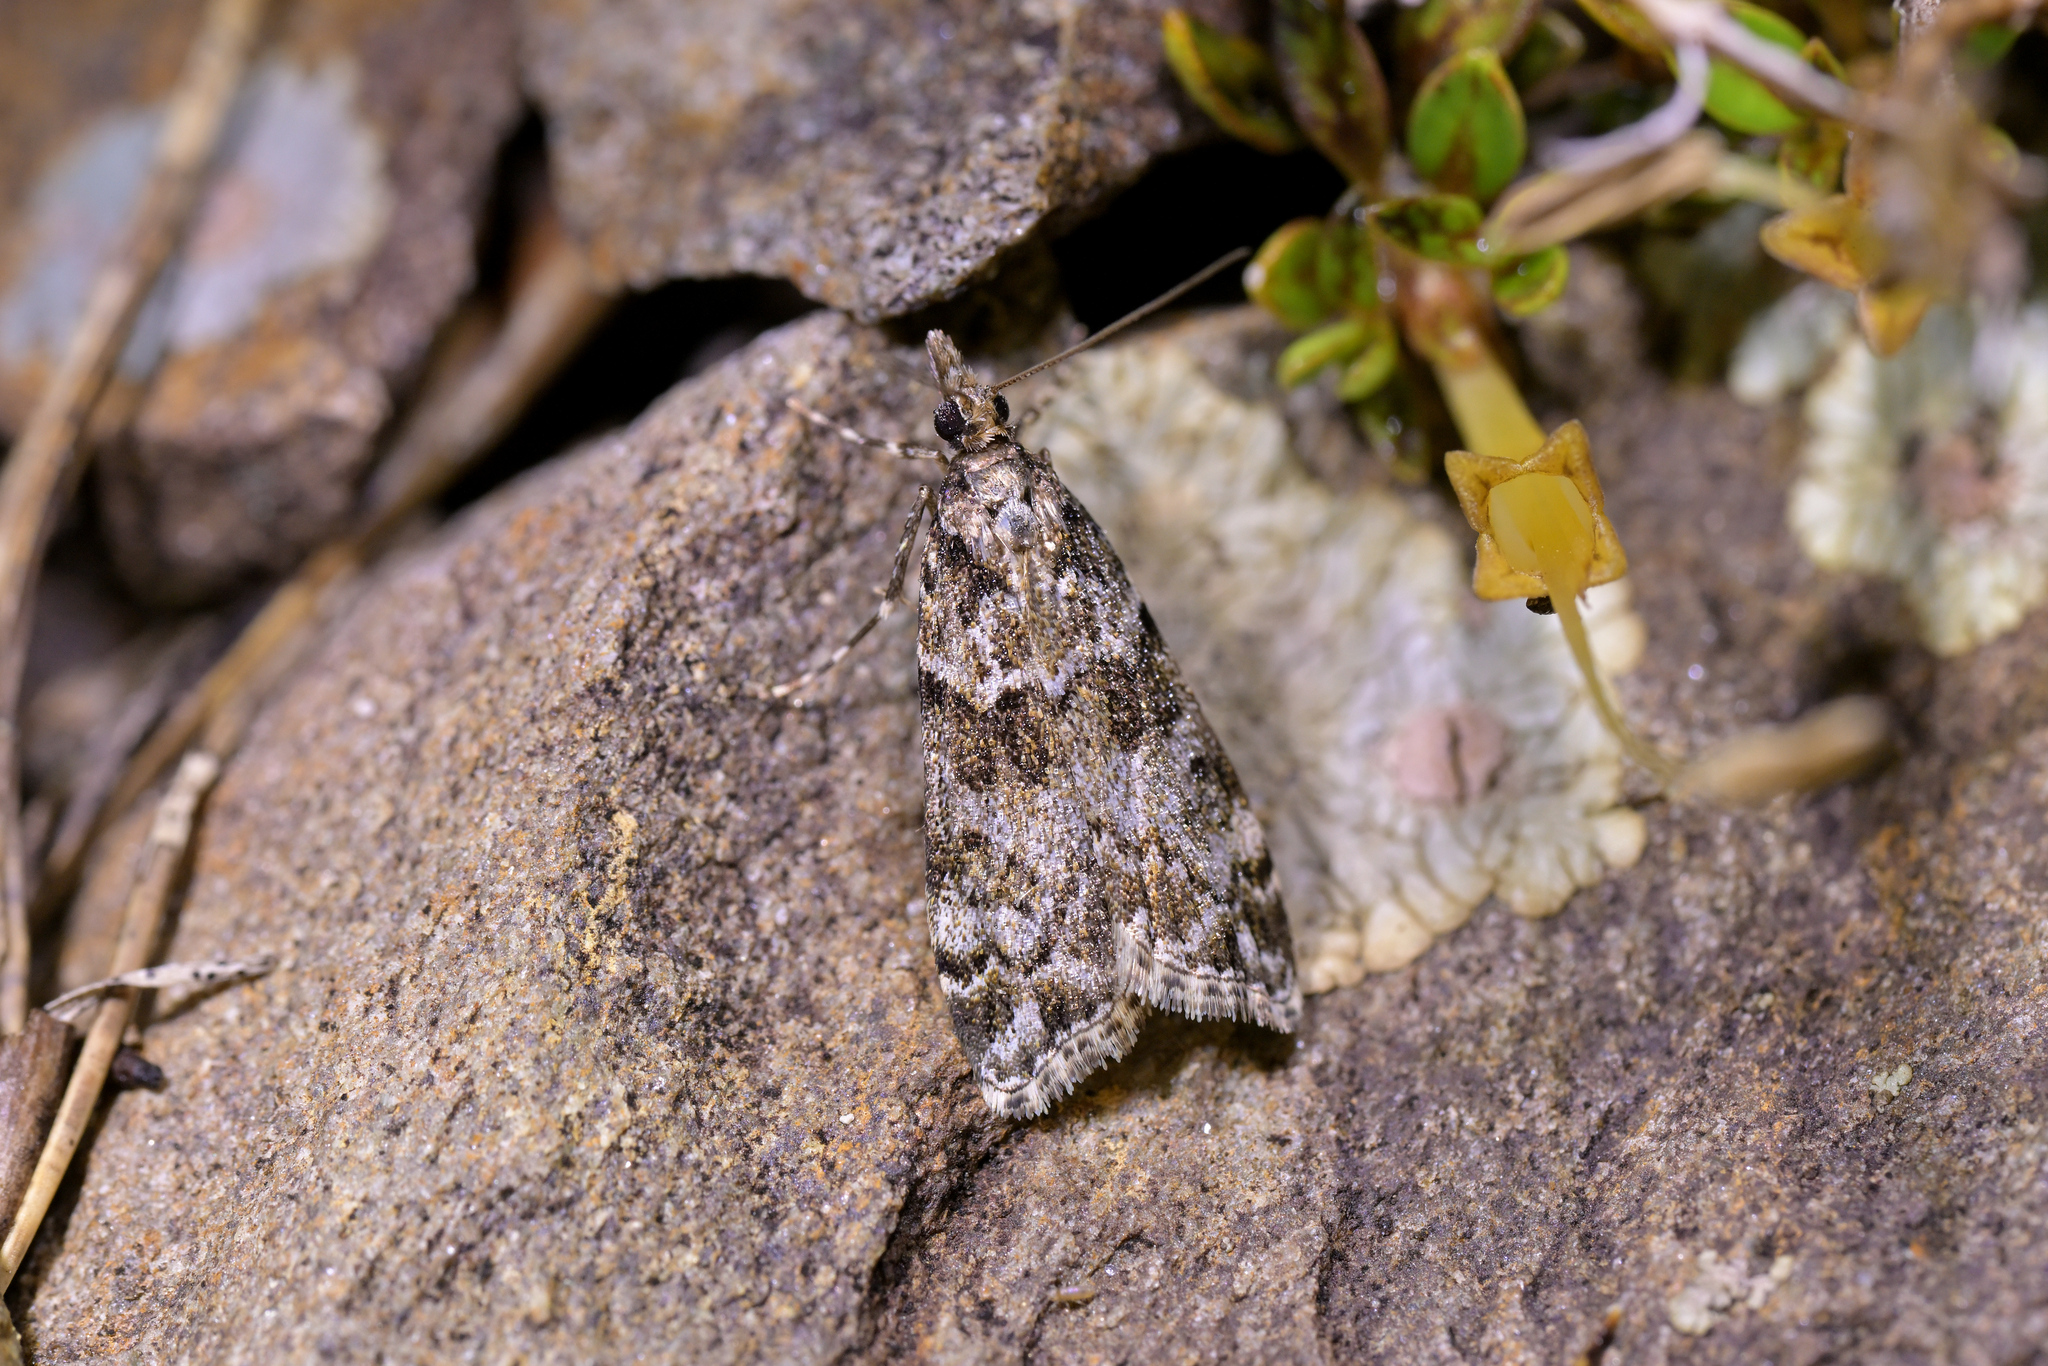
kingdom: Animalia
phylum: Arthropoda
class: Insecta
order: Lepidoptera
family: Crambidae
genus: Eudonia
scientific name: Eudonia locularis
